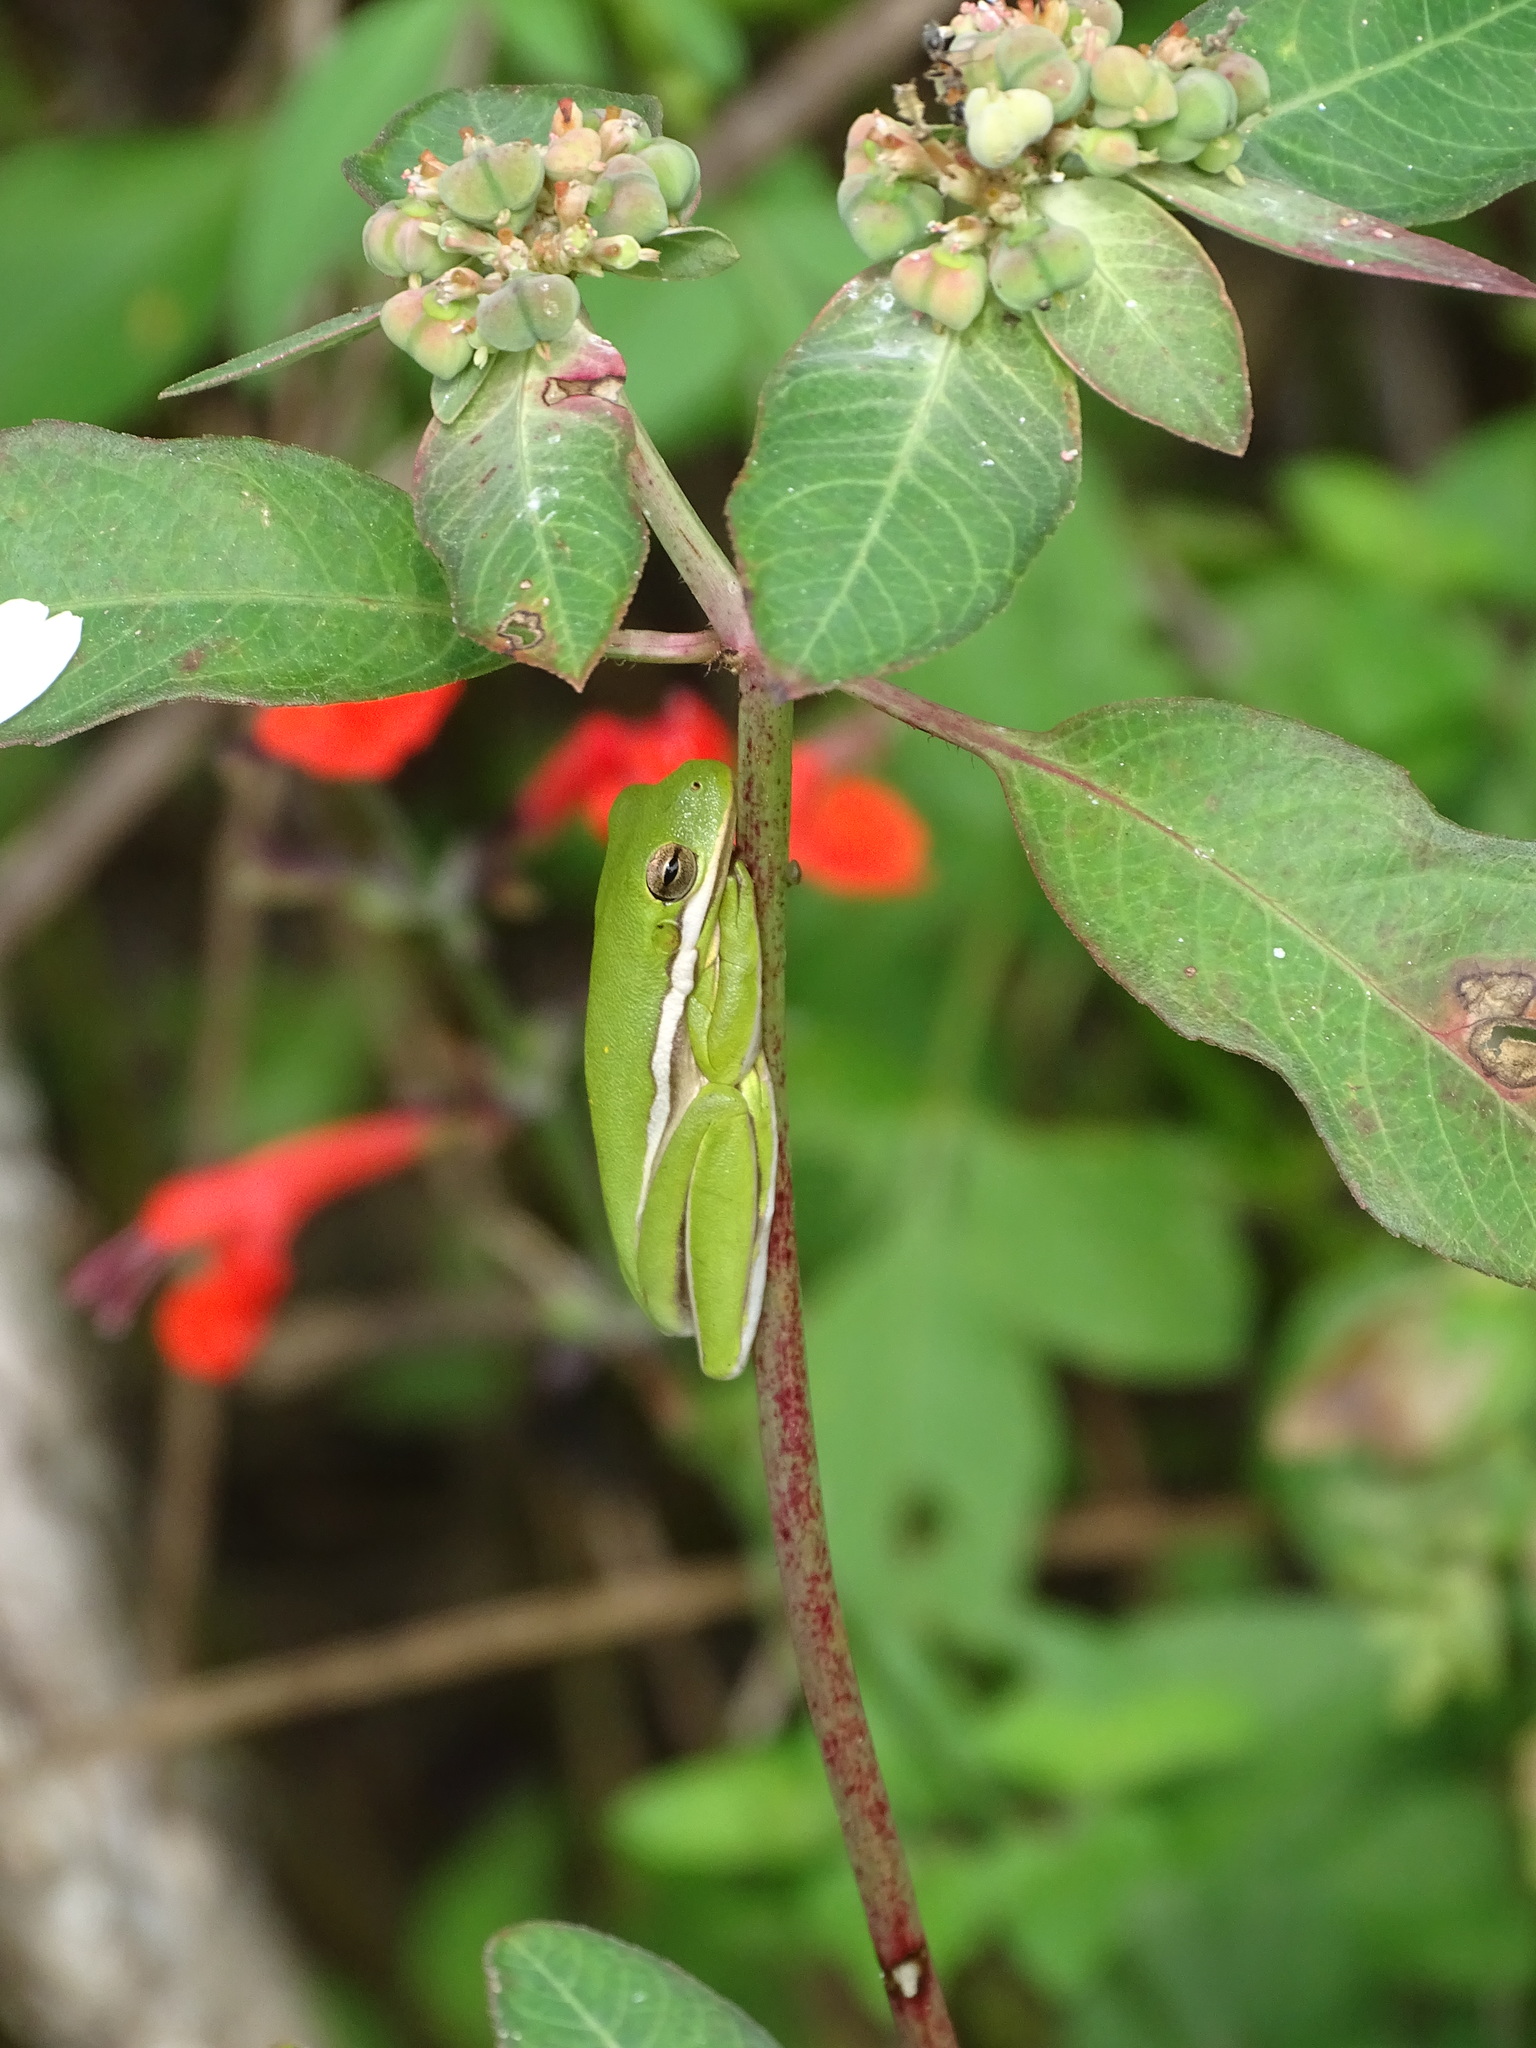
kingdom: Animalia
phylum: Chordata
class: Amphibia
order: Anura
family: Hylidae
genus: Dryophytes
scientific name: Dryophytes cinereus
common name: Green treefrog
